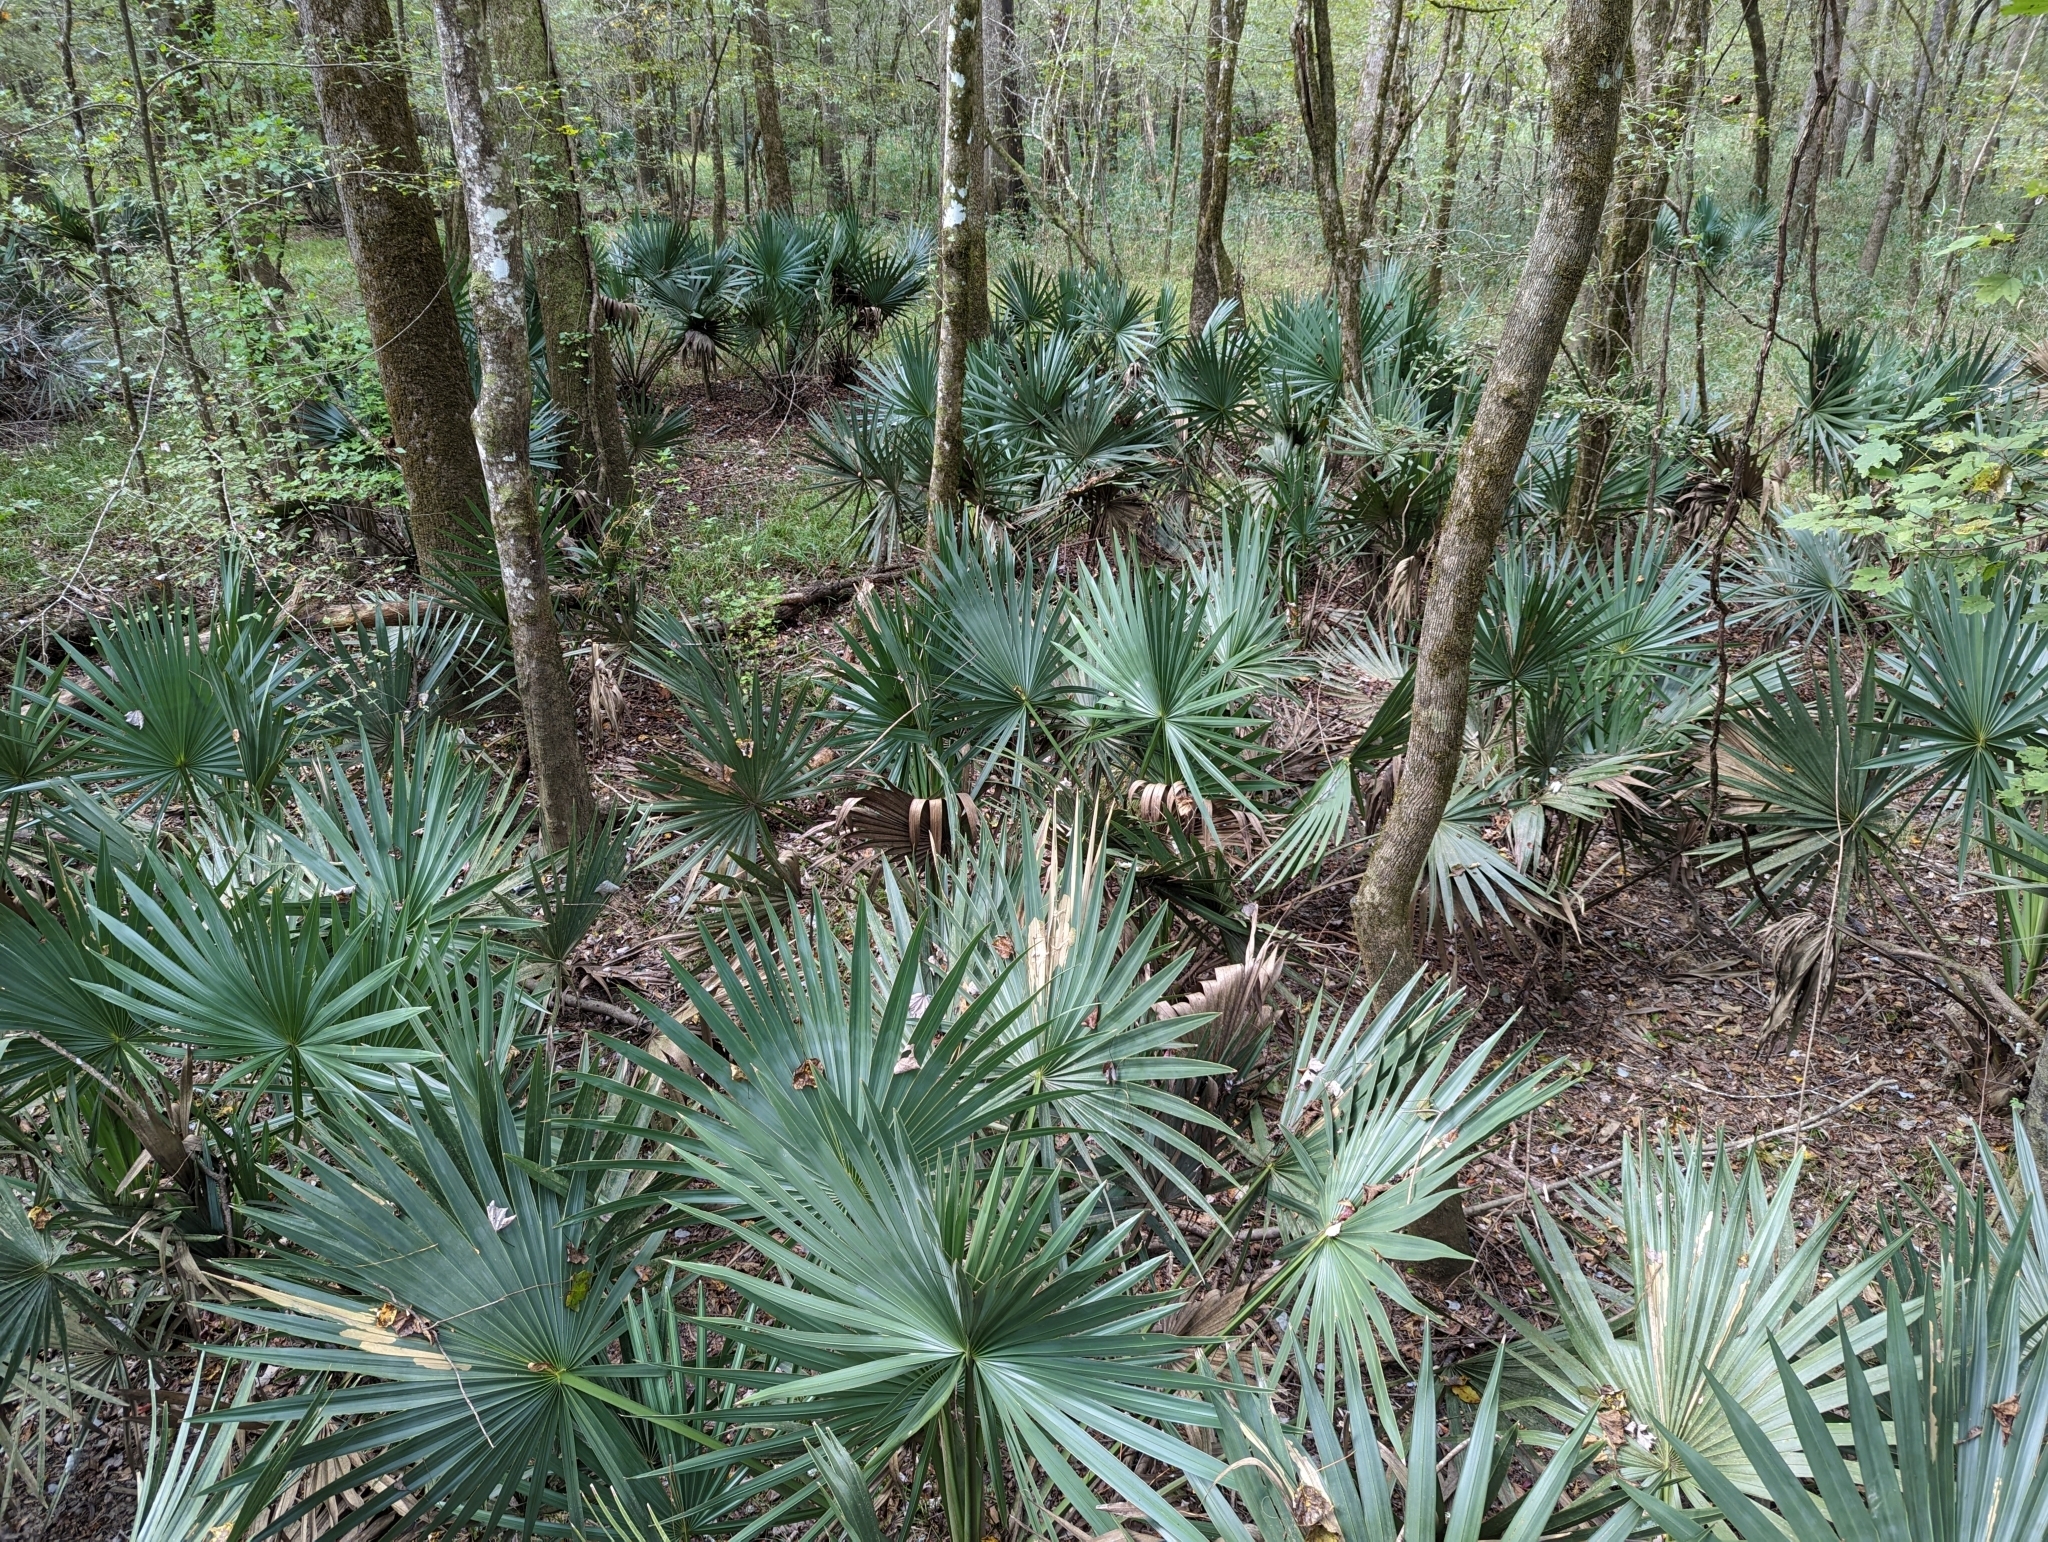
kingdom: Plantae
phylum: Tracheophyta
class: Liliopsida
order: Arecales
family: Arecaceae
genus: Sabal
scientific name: Sabal minor
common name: Dwarf palmetto
